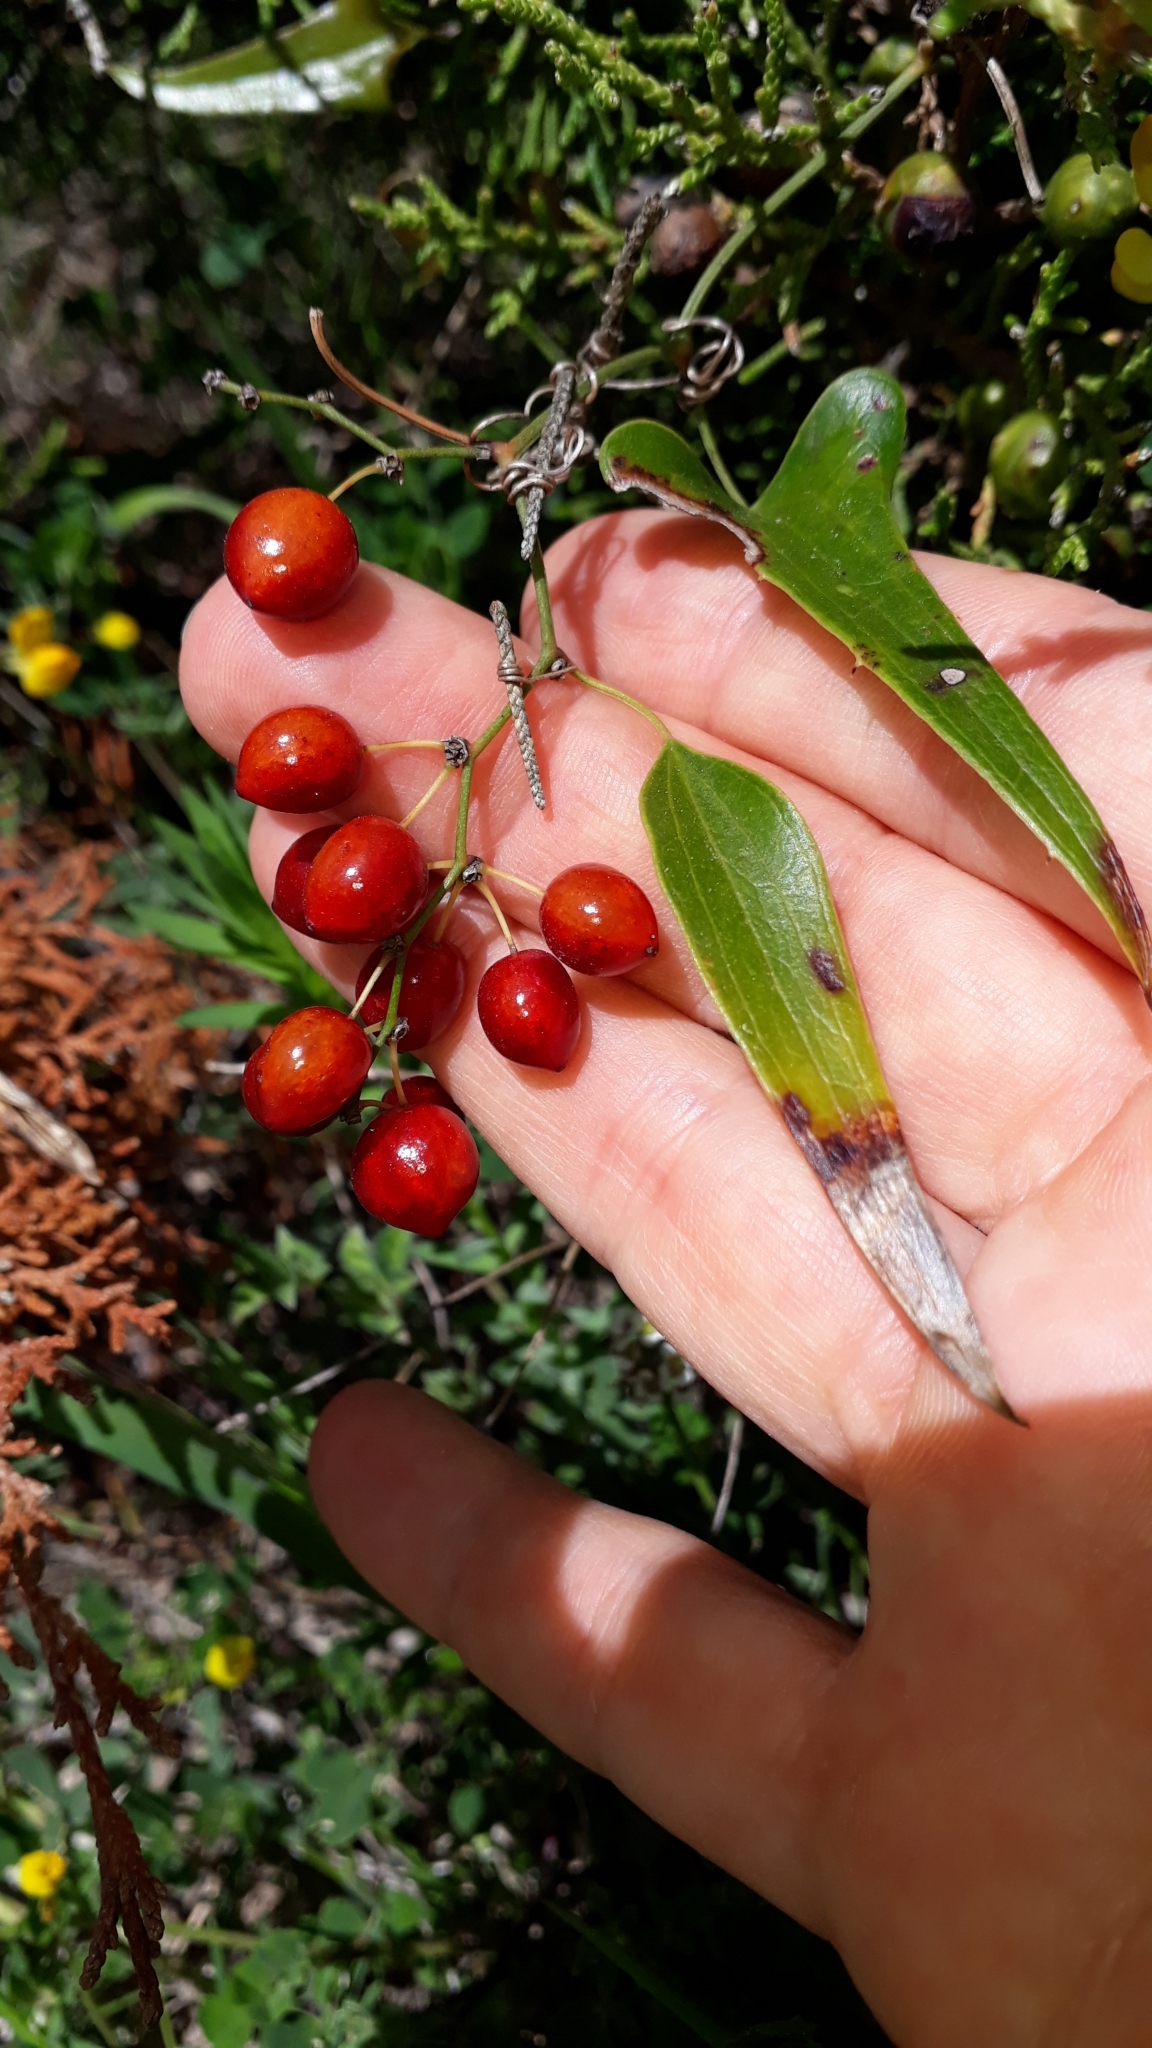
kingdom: Plantae
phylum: Tracheophyta
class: Liliopsida
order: Liliales
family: Smilacaceae
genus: Smilax
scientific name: Smilax aspera
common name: Common smilax
